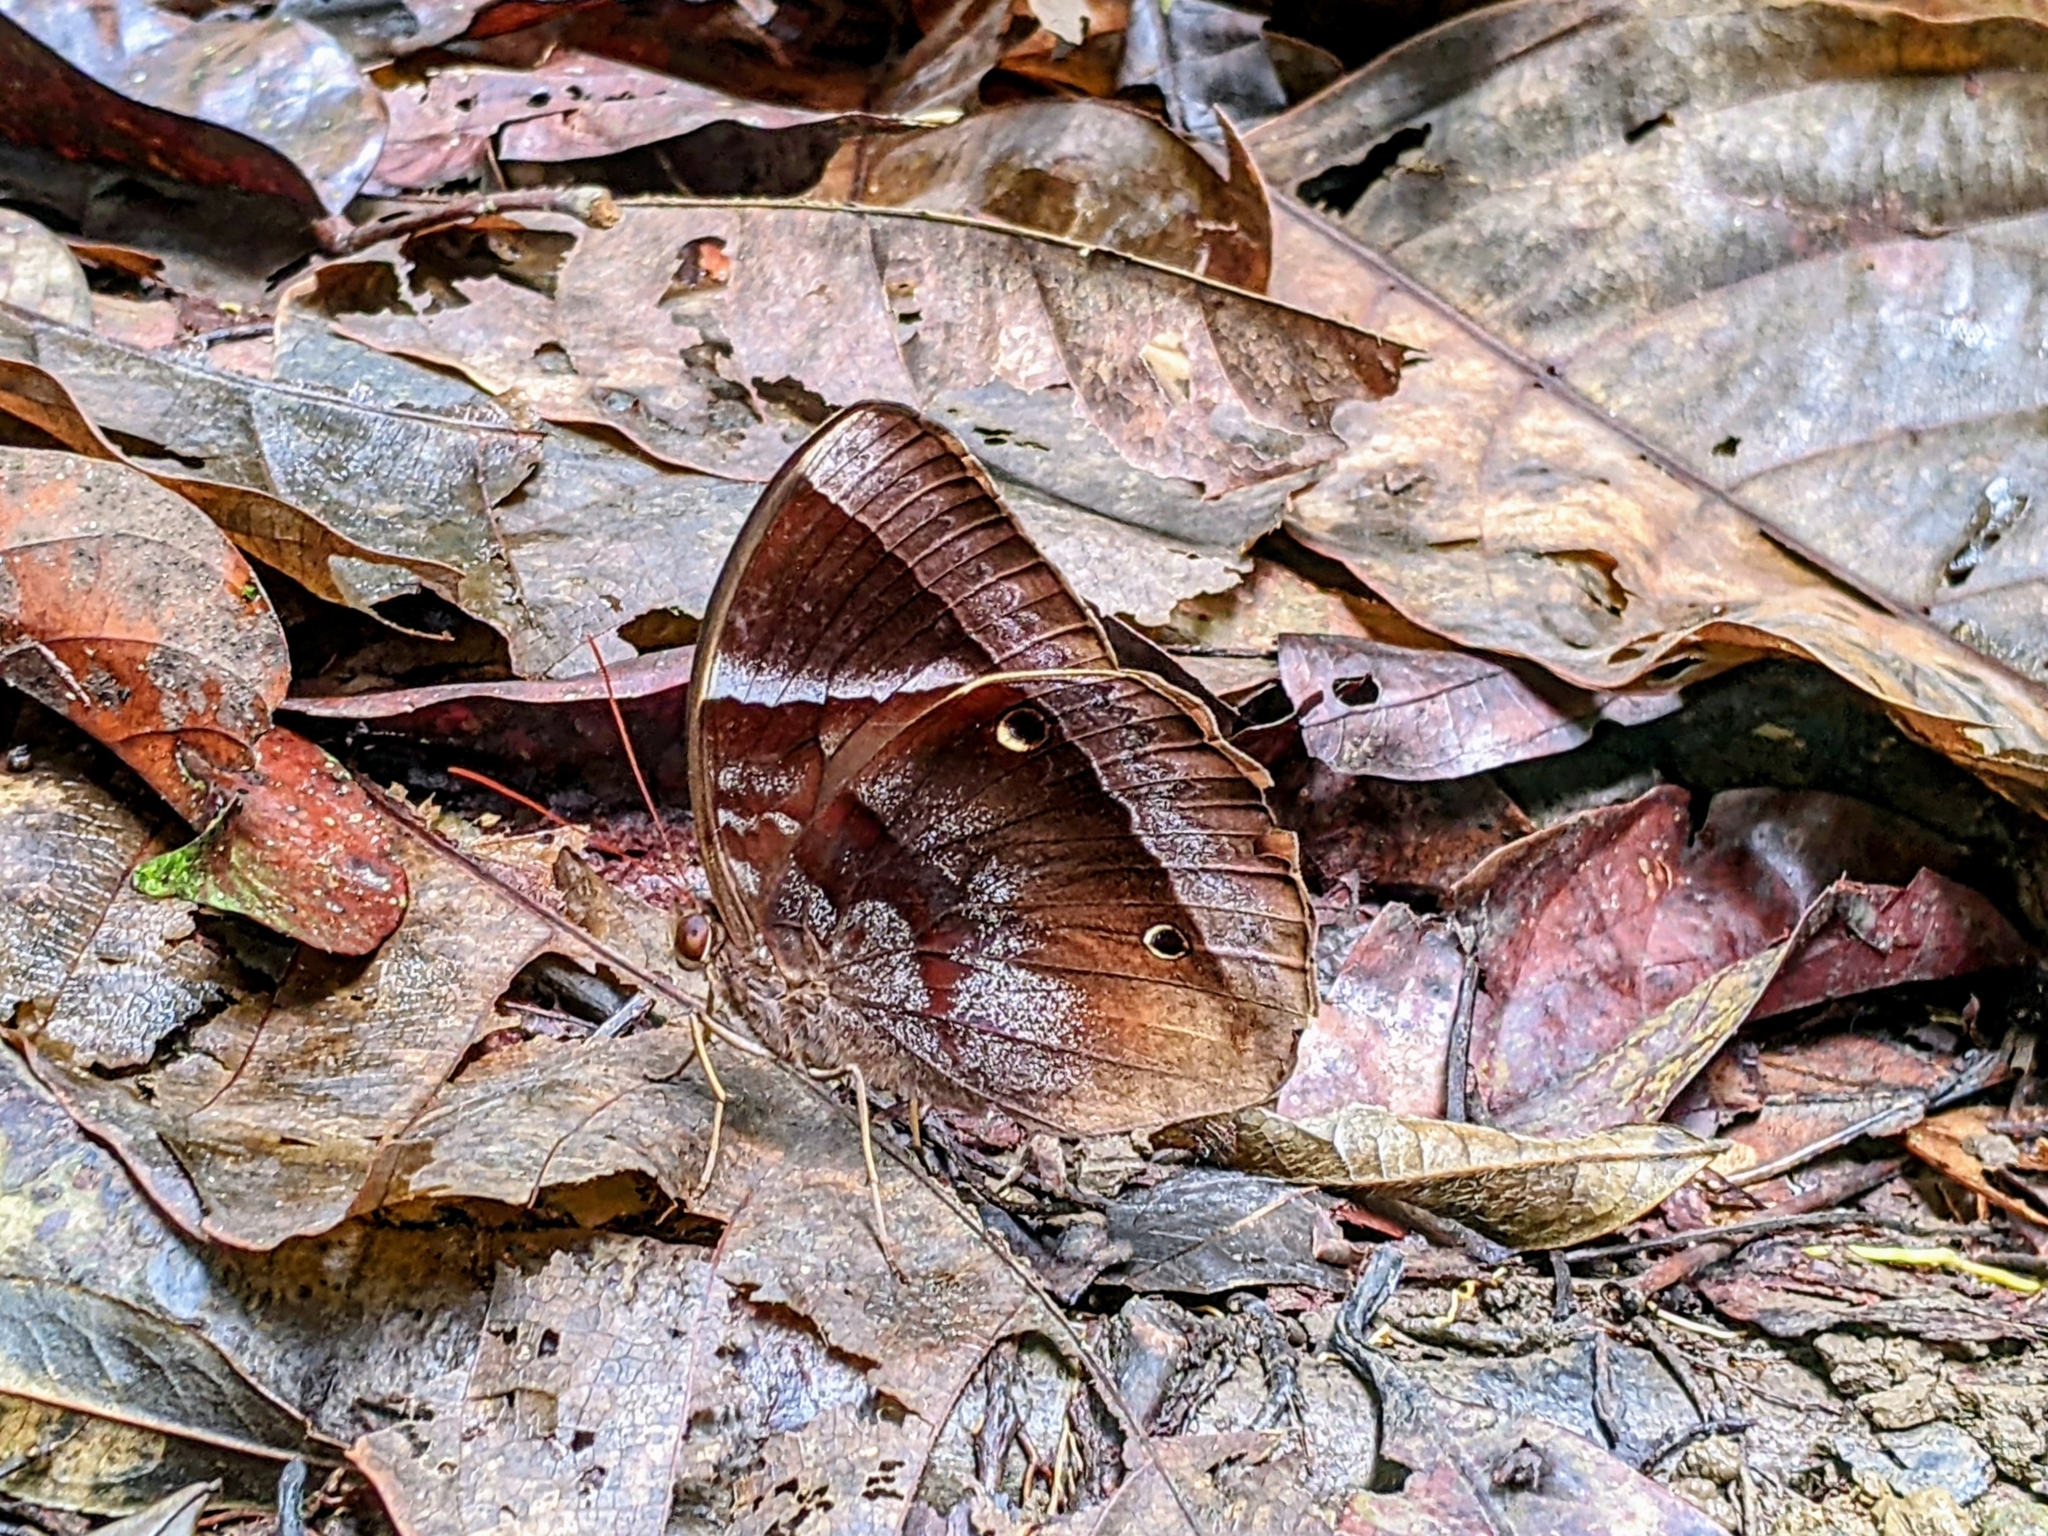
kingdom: Animalia
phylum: Arthropoda
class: Insecta
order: Lepidoptera
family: Nymphalidae
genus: Thaumantis
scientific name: Thaumantis klugius
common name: Dark blue jungle glory
